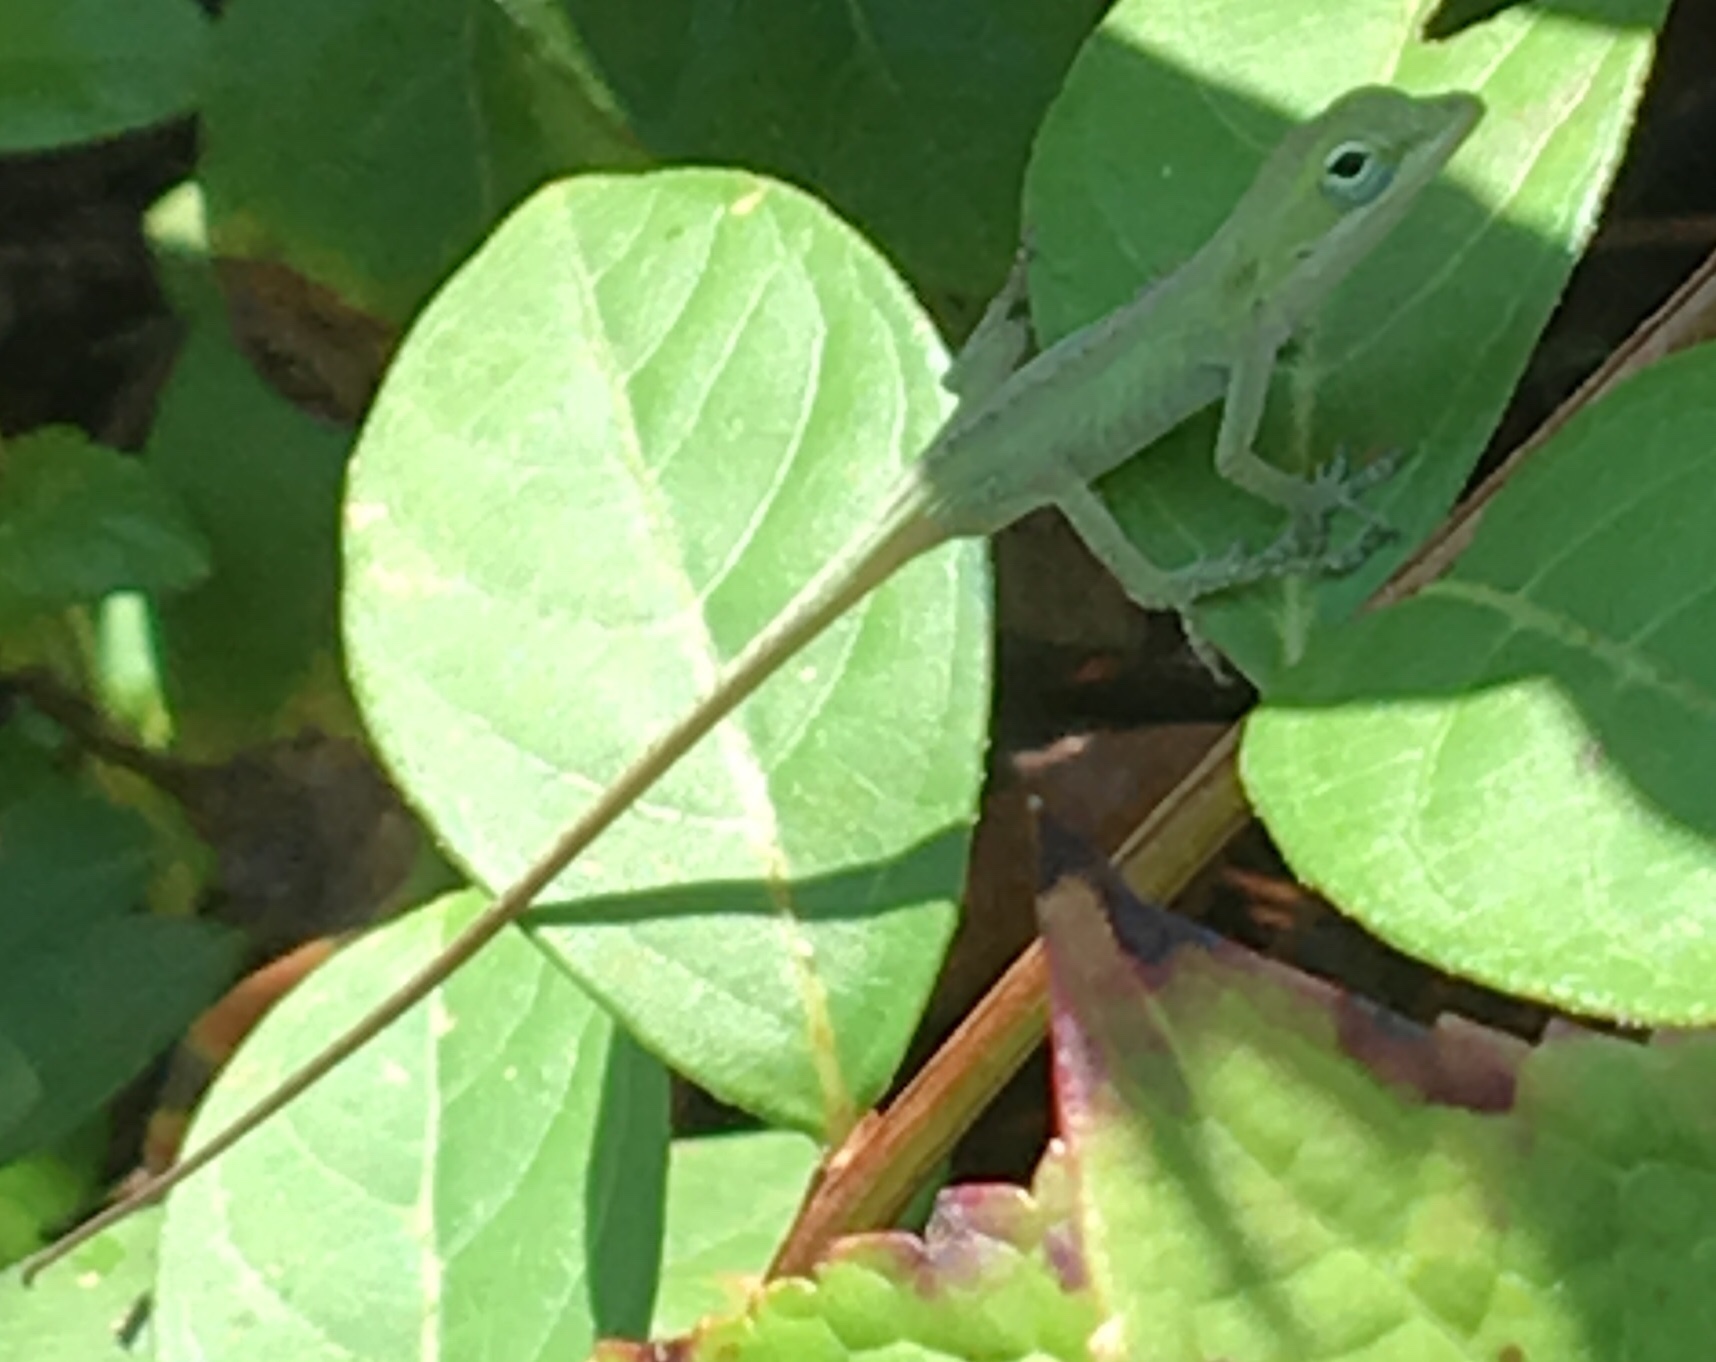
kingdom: Animalia
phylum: Chordata
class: Squamata
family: Dactyloidae
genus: Anolis
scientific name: Anolis carolinensis
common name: Green anole
